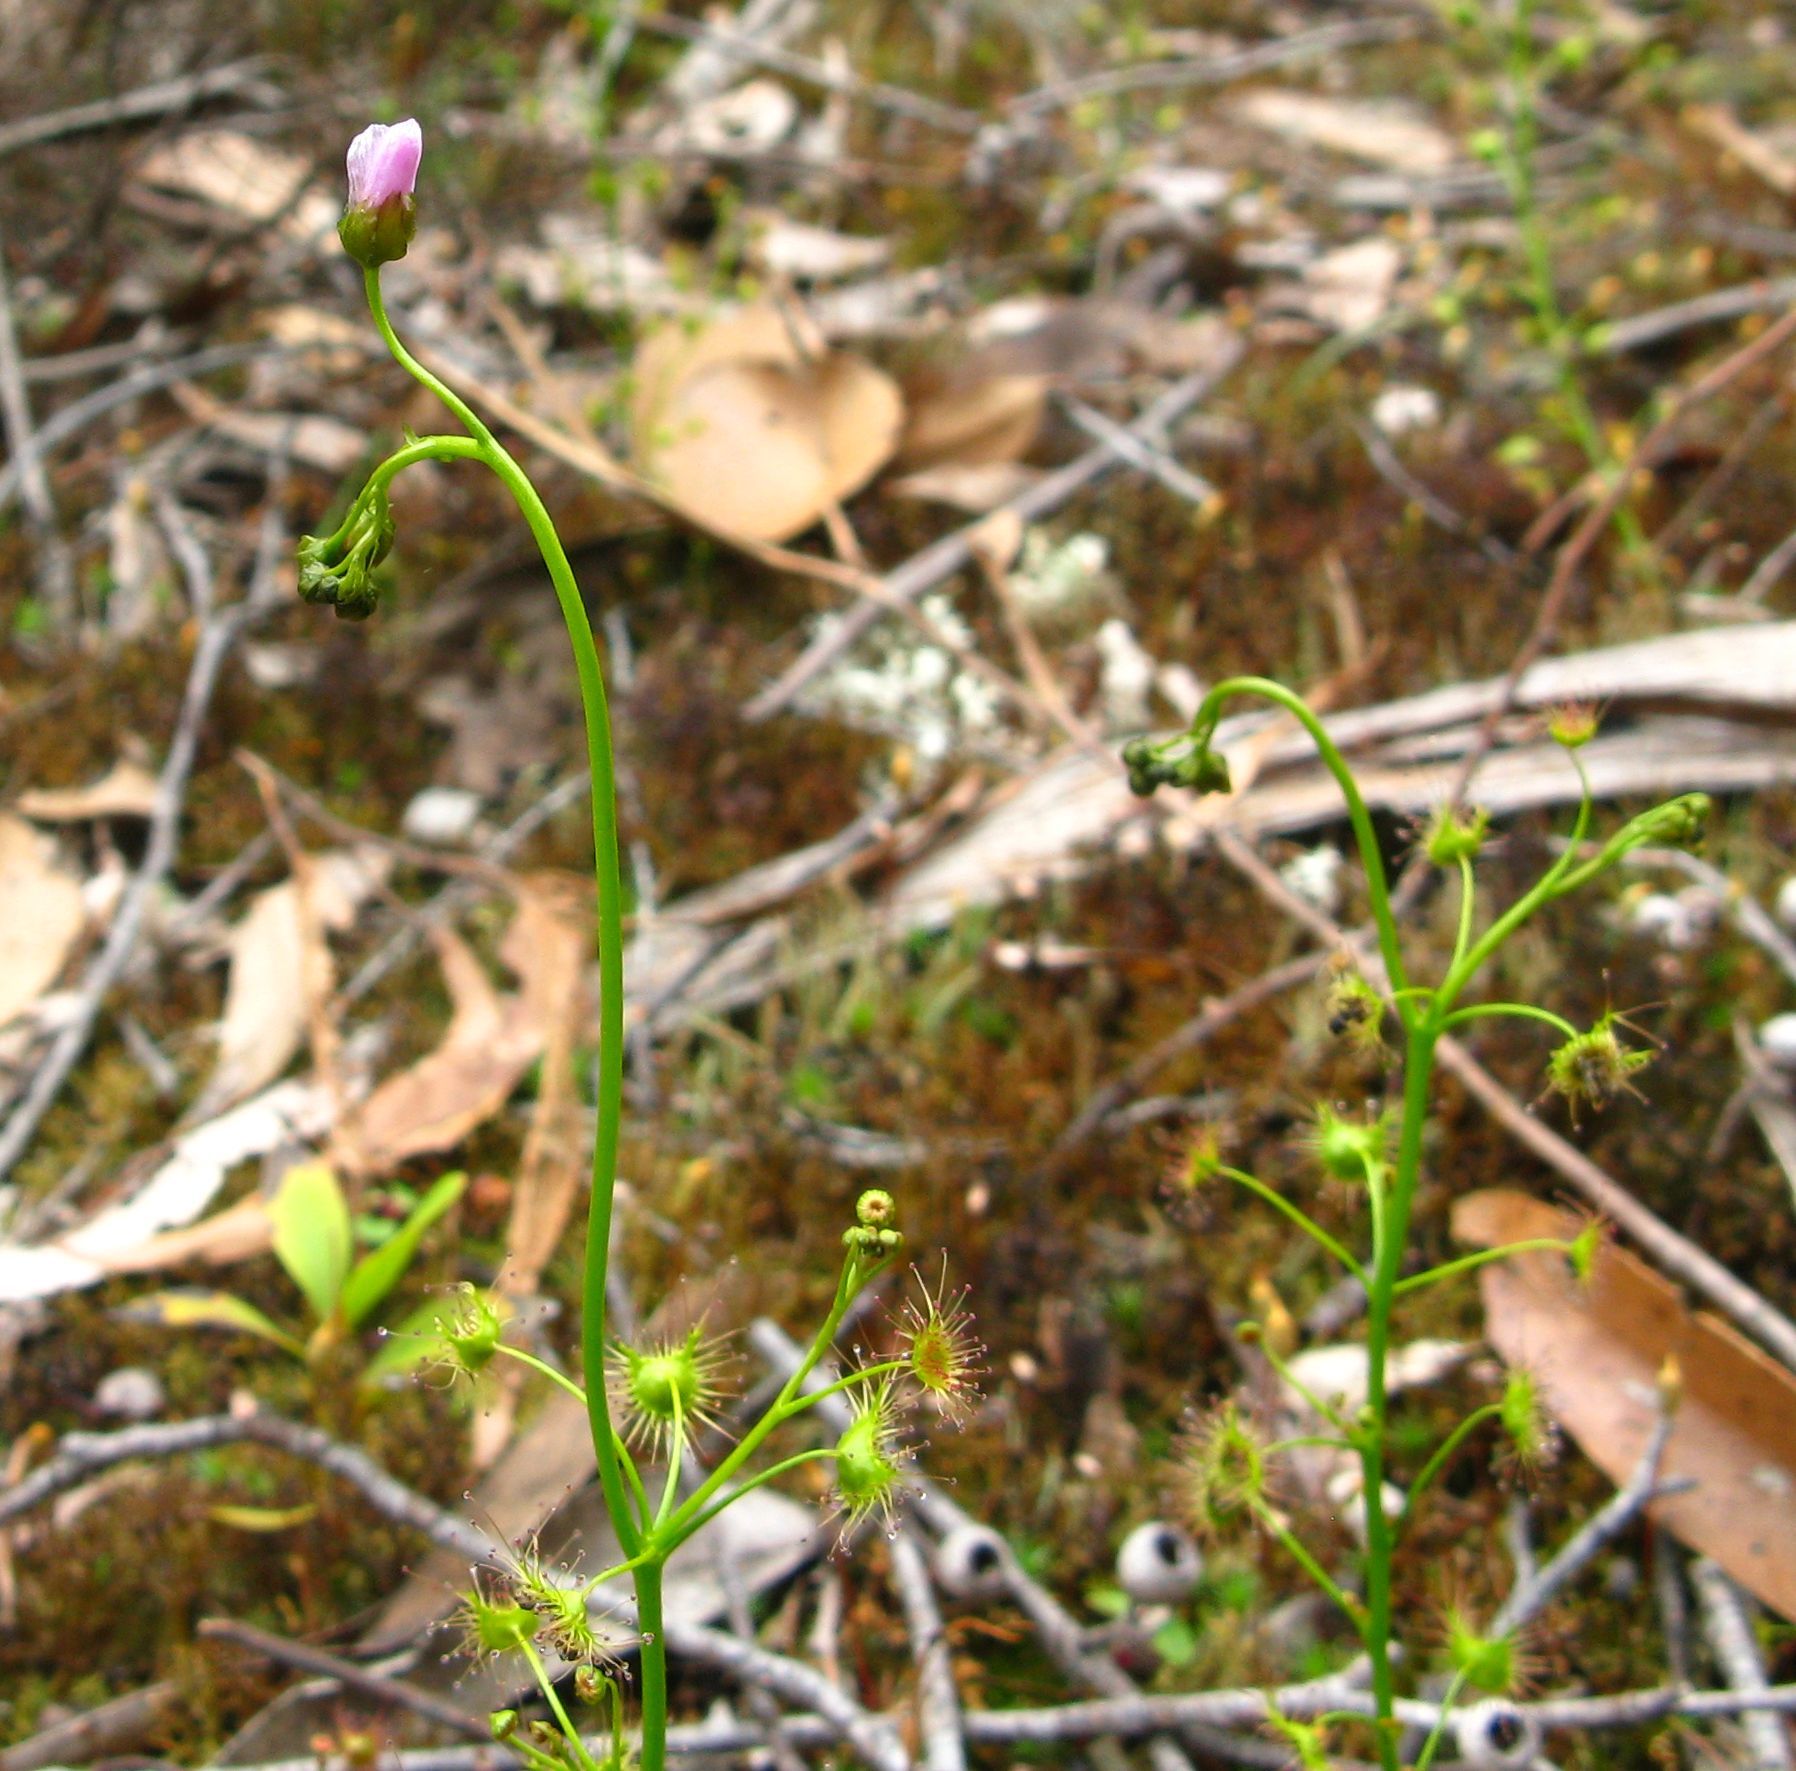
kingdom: Plantae
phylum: Tracheophyta
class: Magnoliopsida
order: Caryophyllales
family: Droseraceae
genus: Drosera
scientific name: Drosera peltata
